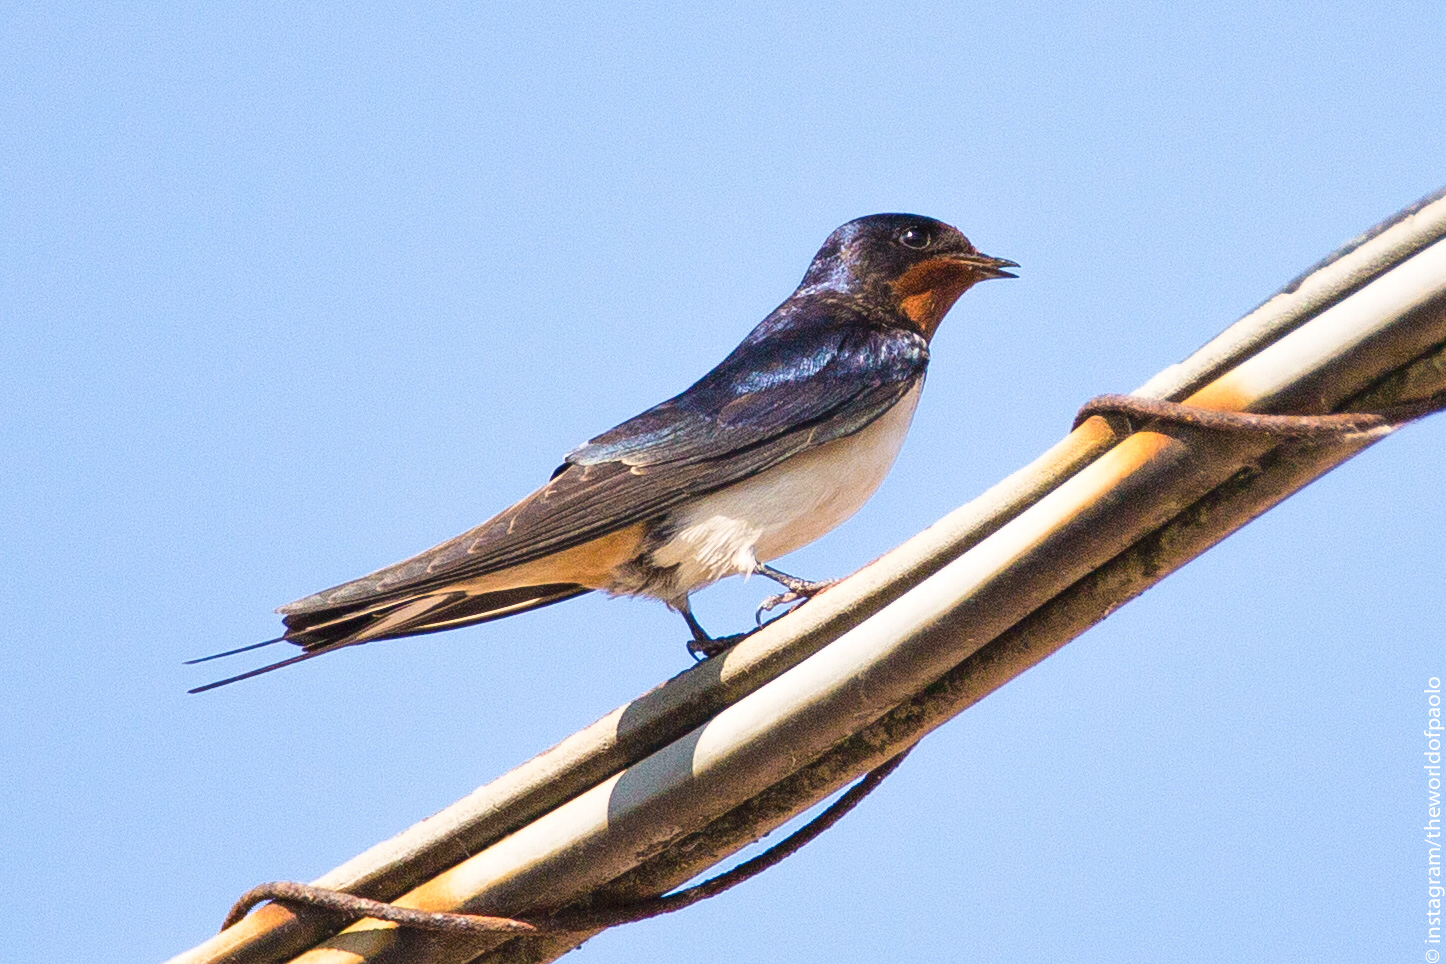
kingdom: Animalia
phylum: Chordata
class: Aves
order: Passeriformes
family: Hirundinidae
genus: Hirundo
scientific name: Hirundo rustica
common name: Barn swallow
